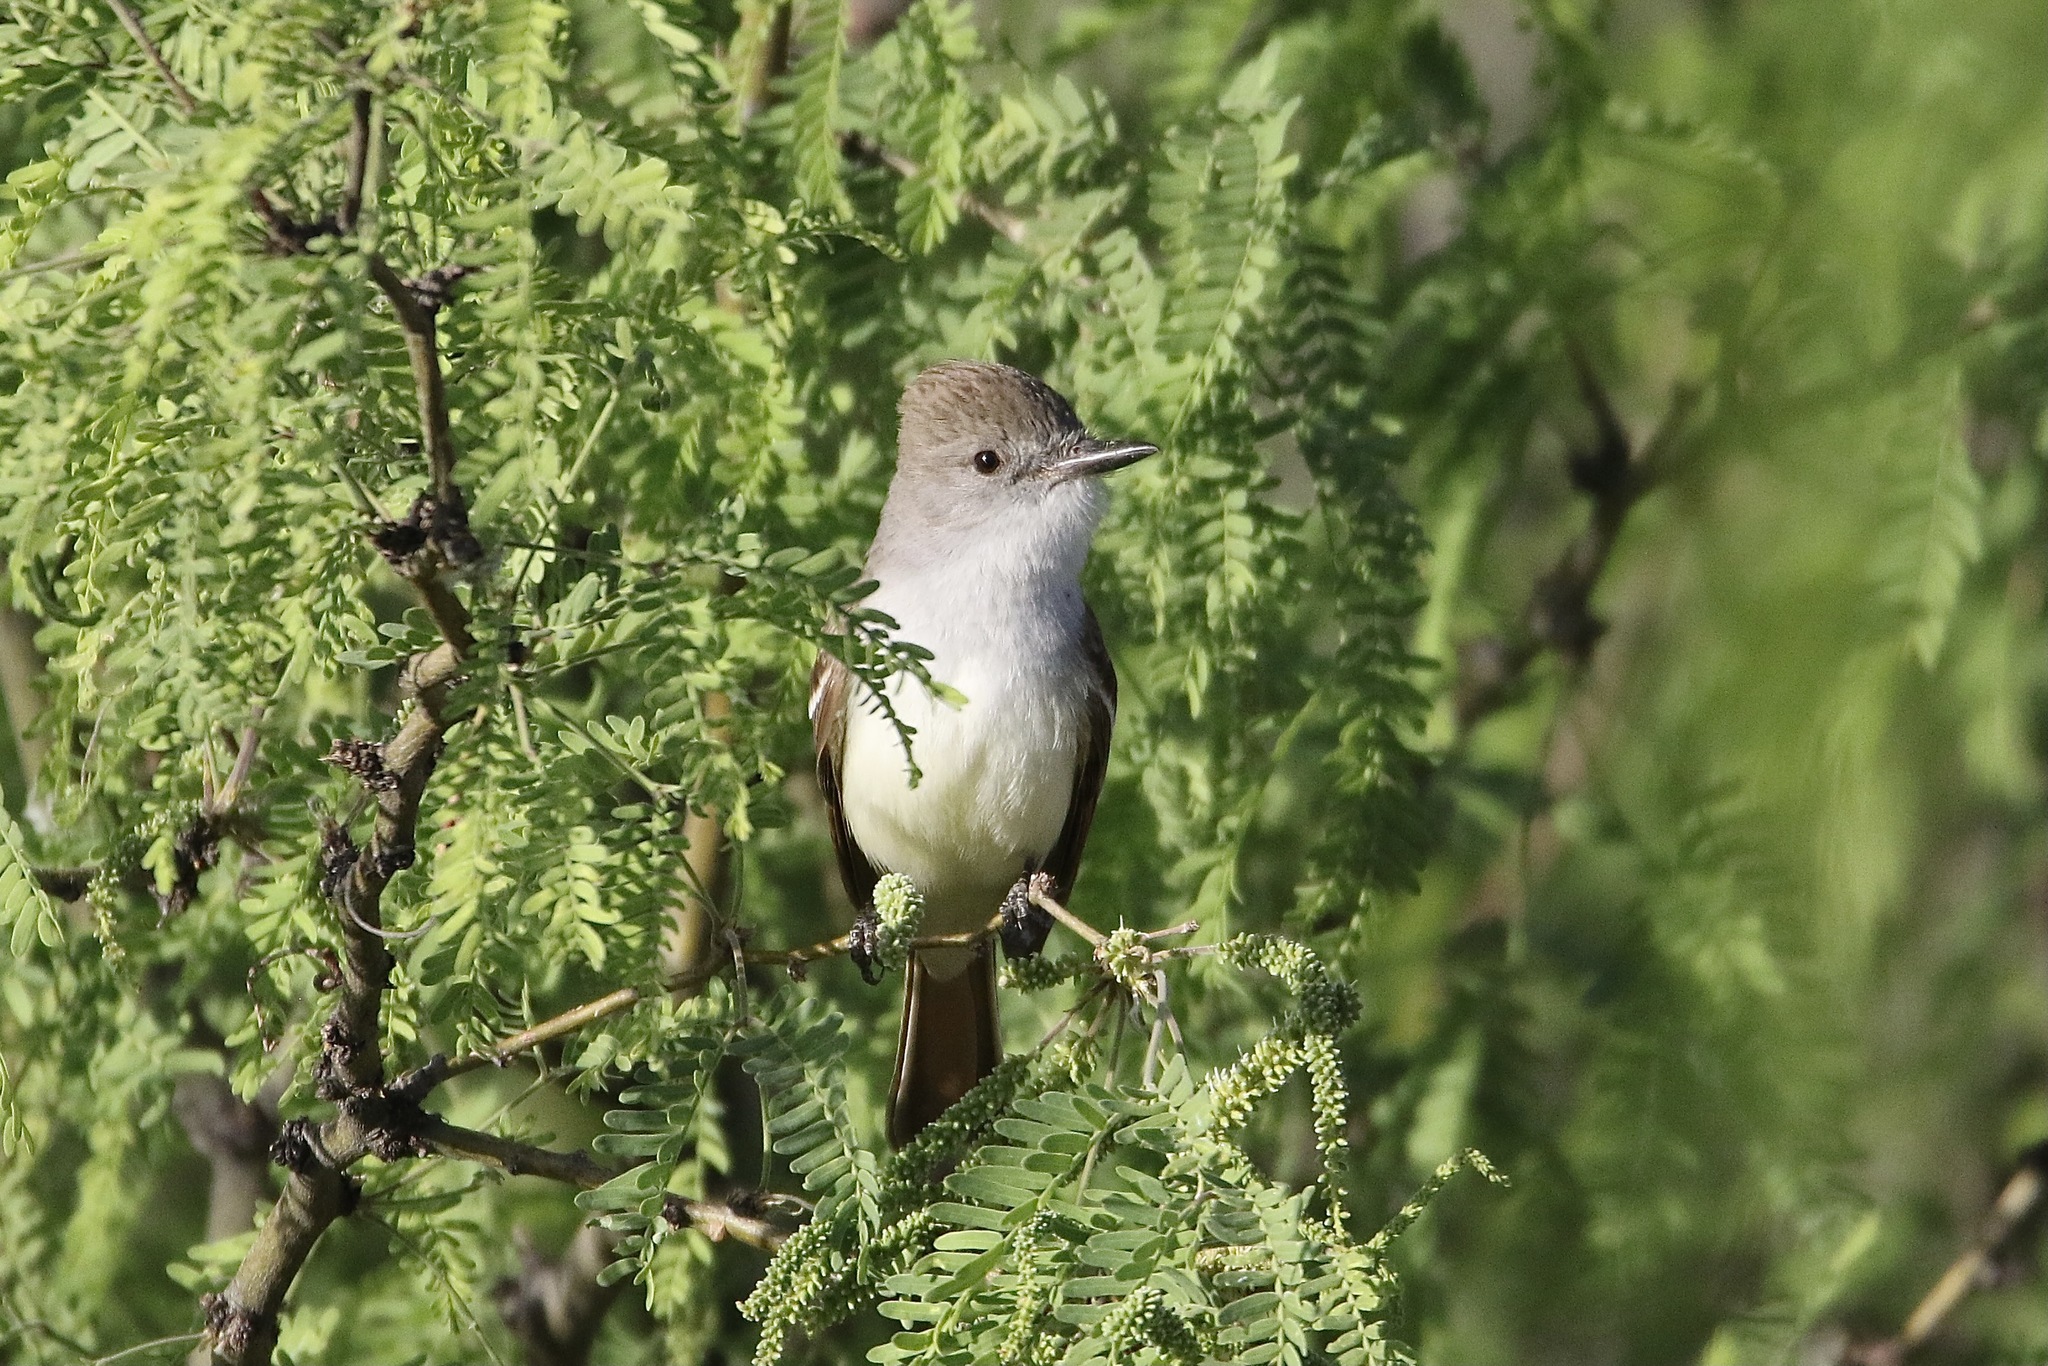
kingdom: Animalia
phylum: Chordata
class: Aves
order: Passeriformes
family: Tyrannidae
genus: Myiarchus
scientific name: Myiarchus cinerascens
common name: Ash-throated flycatcher
